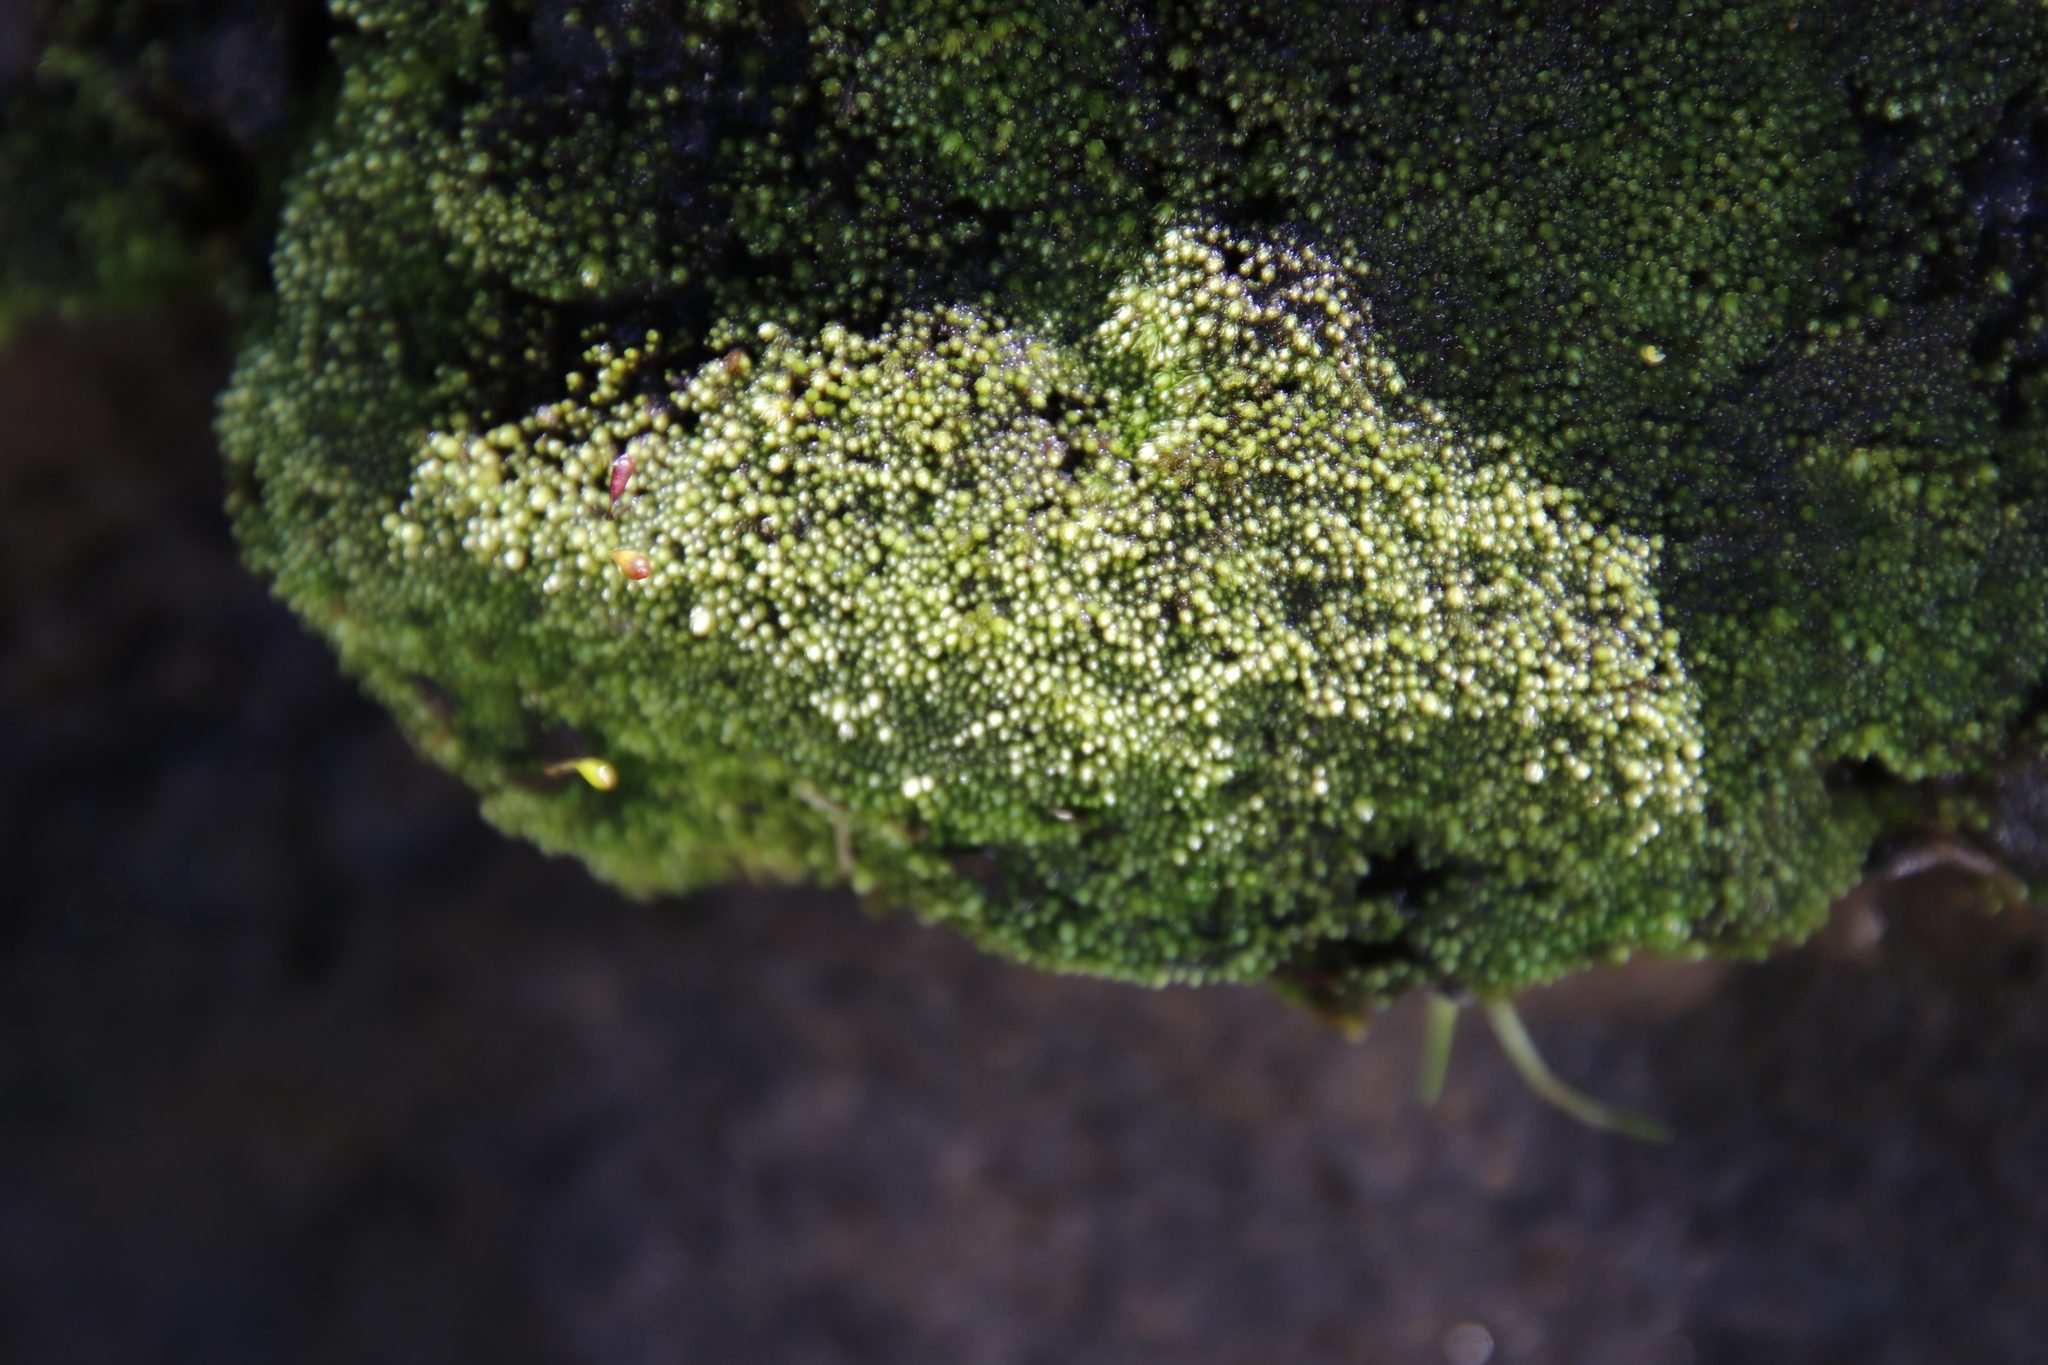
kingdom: Plantae
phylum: Bryophyta
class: Bryopsida
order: Bryales
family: Mniaceae
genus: Mielichhoferia
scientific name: Mielichhoferia subnuda
